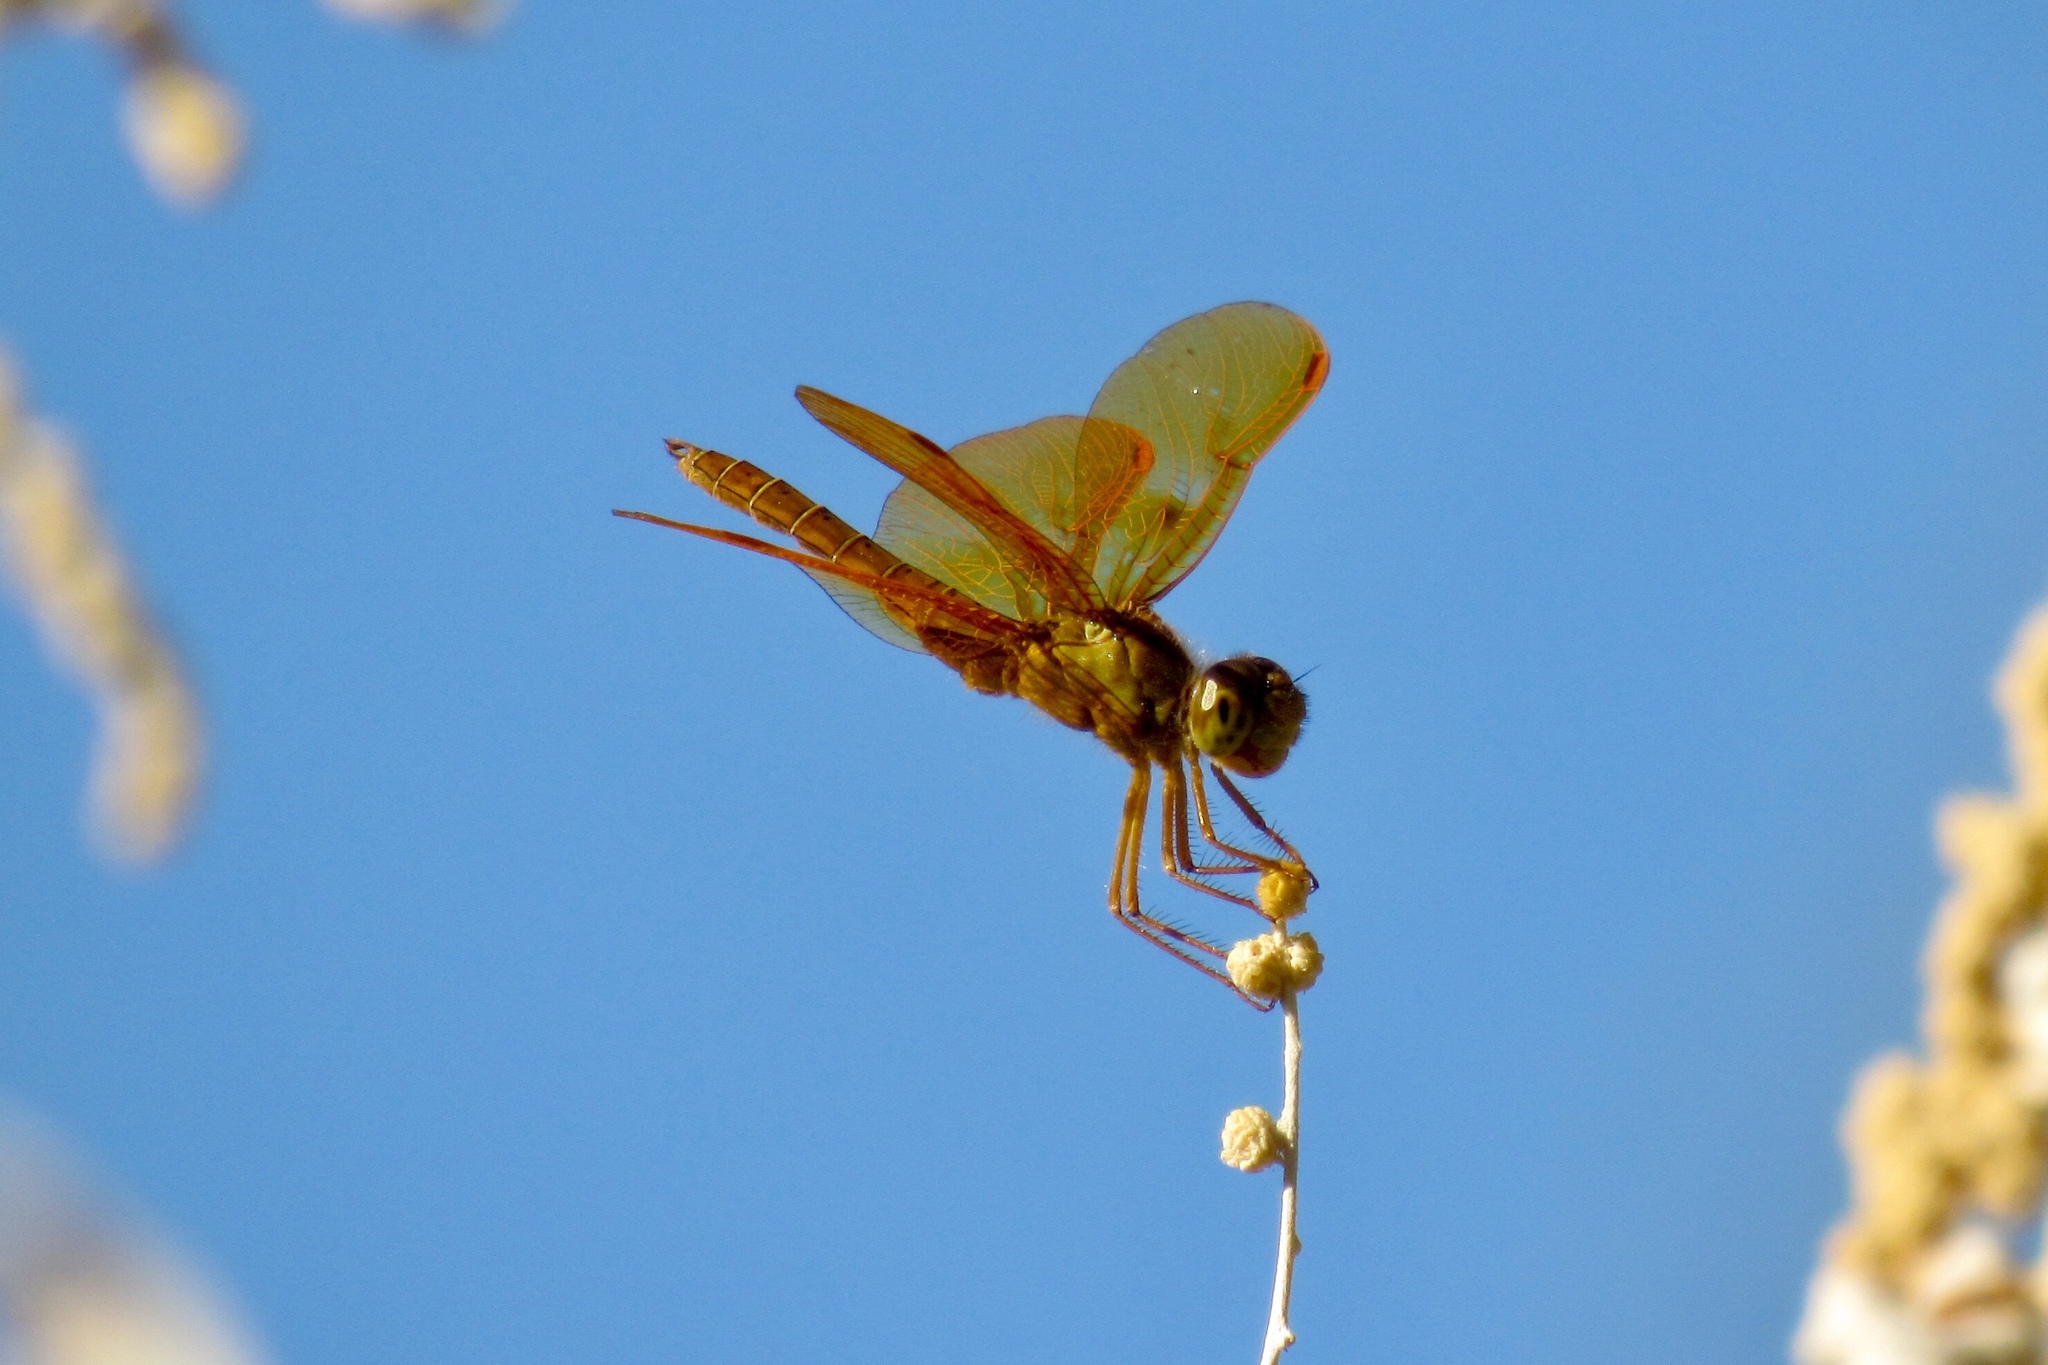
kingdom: Animalia
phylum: Arthropoda
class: Insecta
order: Odonata
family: Libellulidae
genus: Perithemis
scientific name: Perithemis intensa
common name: Mexican amberwing
